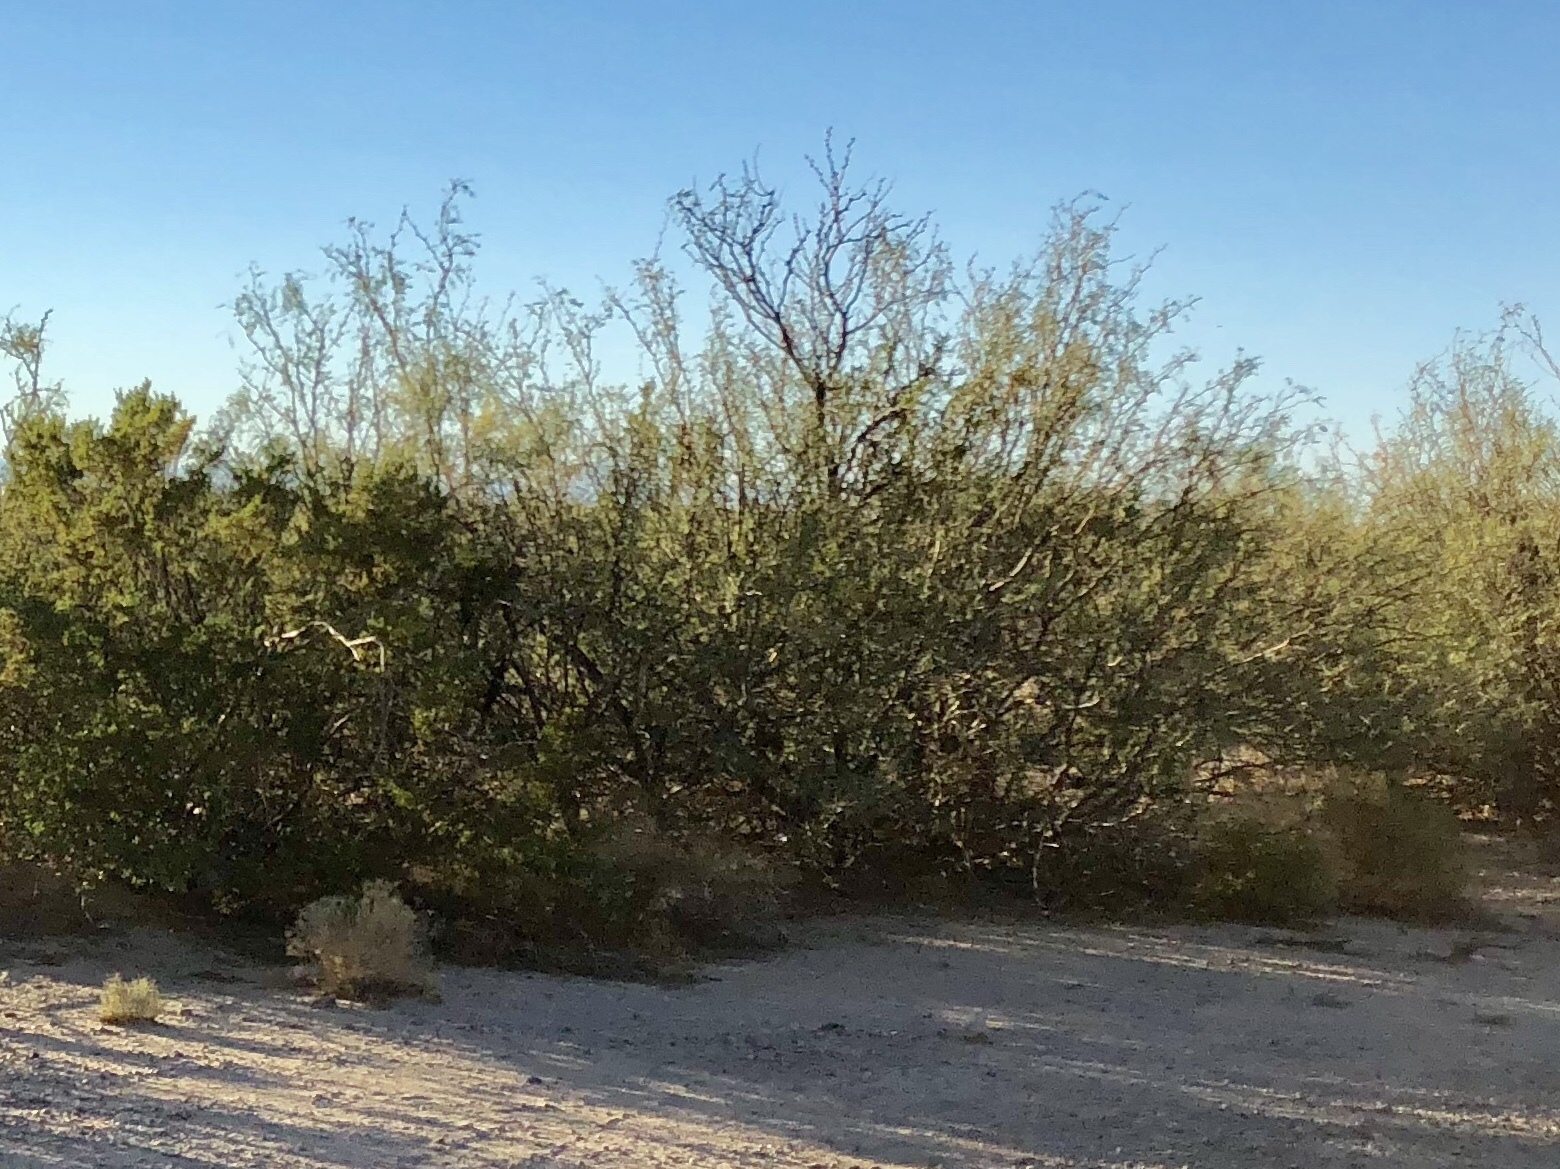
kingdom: Plantae
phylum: Tracheophyta
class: Magnoliopsida
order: Zygophyllales
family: Zygophyllaceae
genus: Larrea
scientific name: Larrea tridentata
